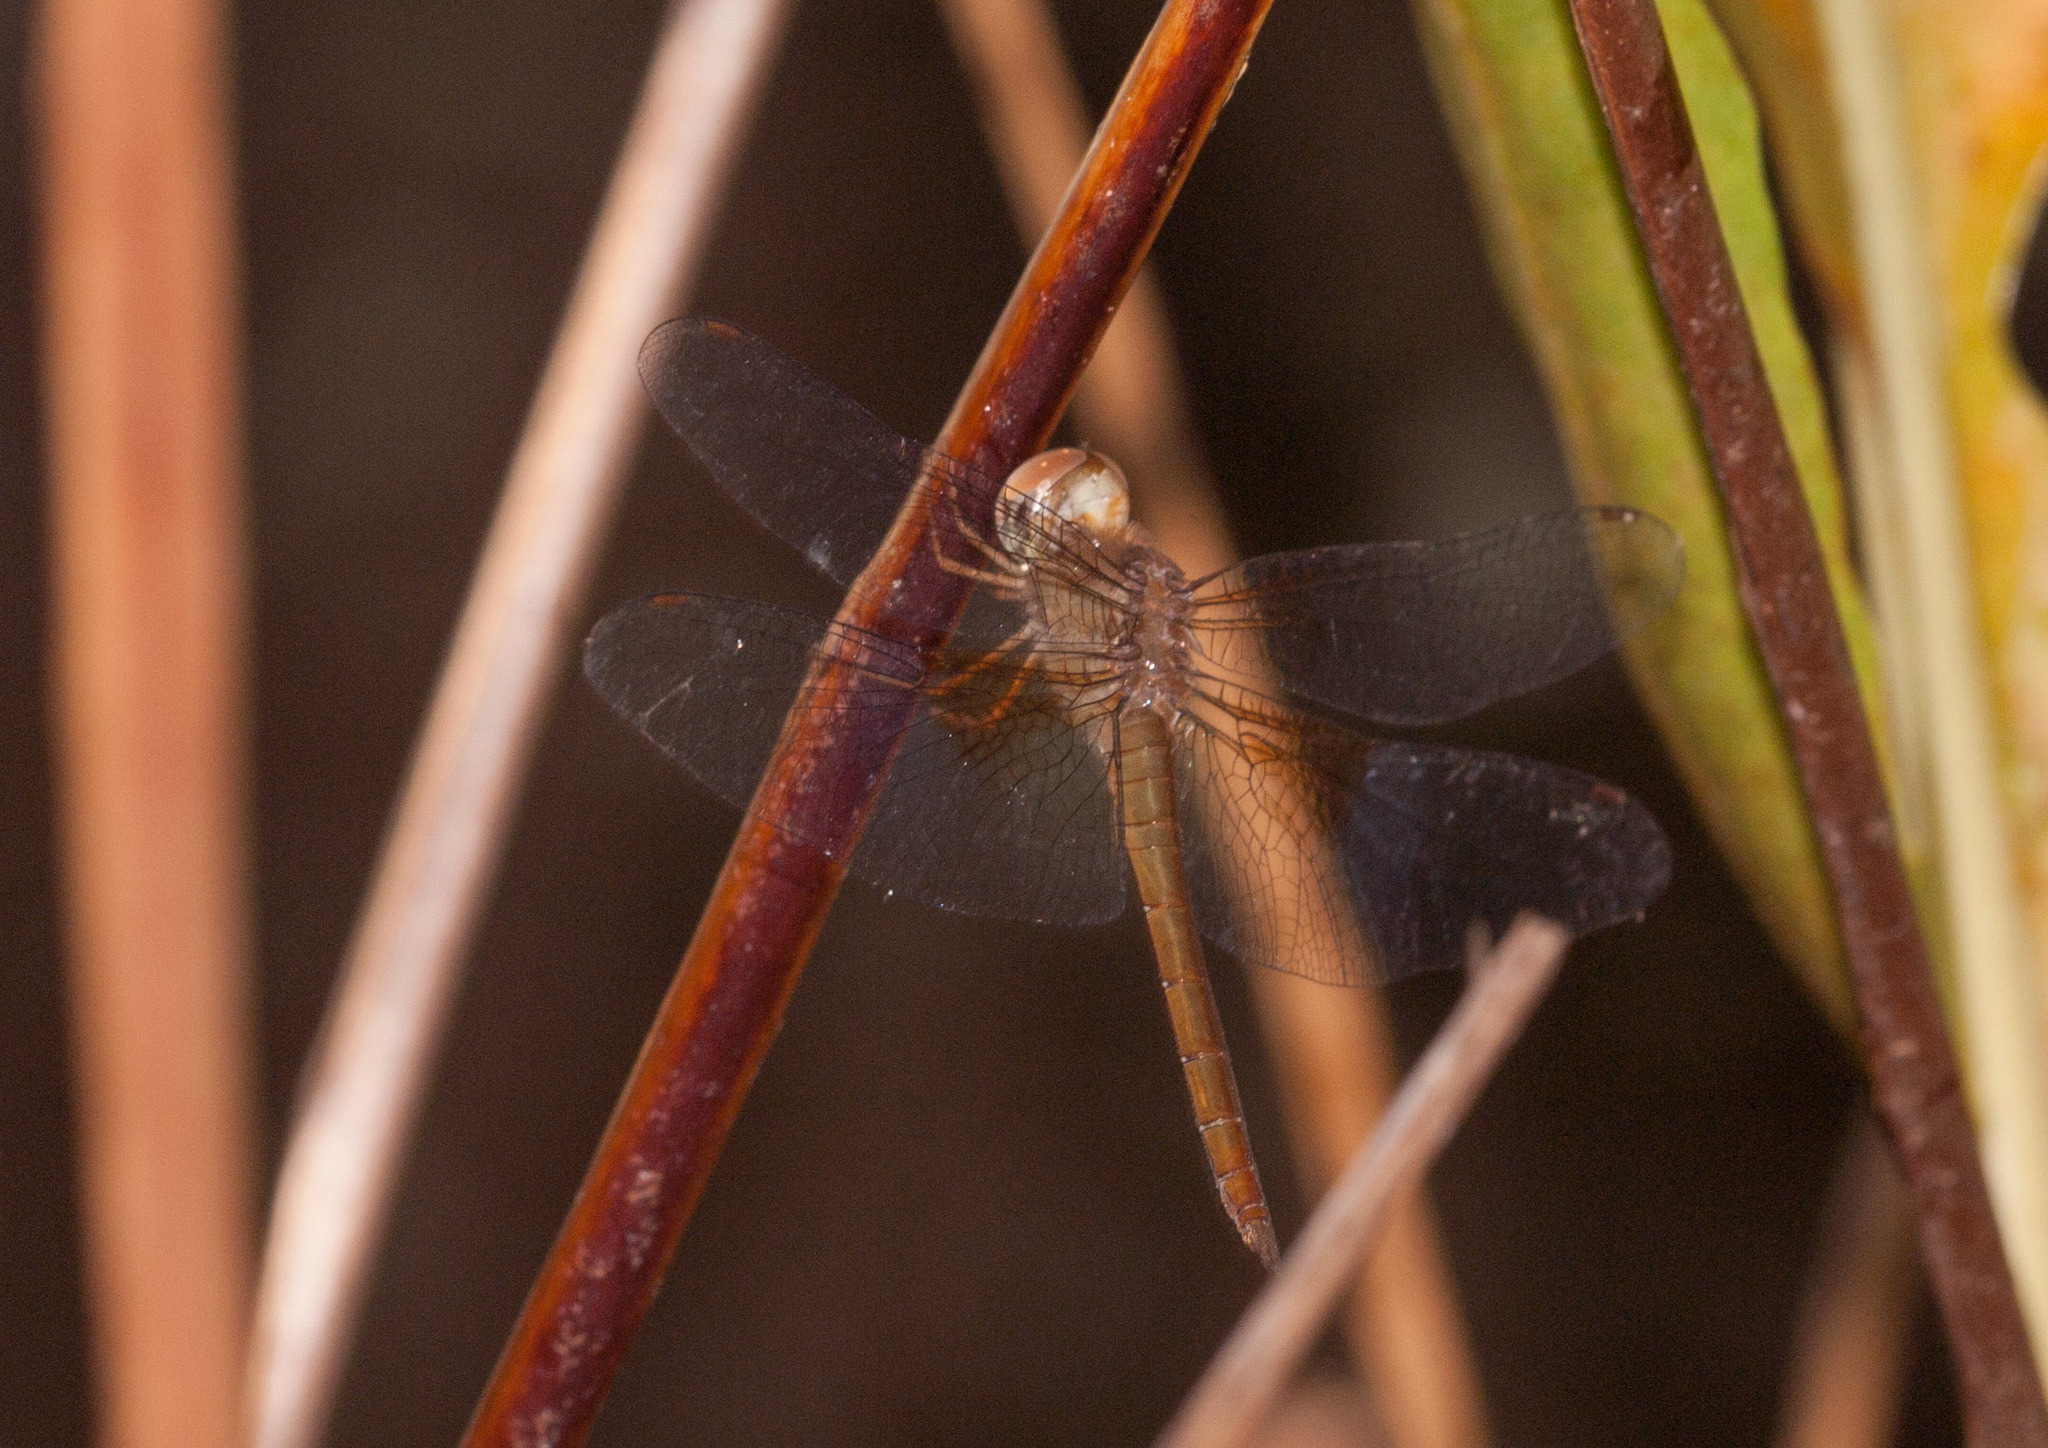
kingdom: Animalia
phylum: Arthropoda
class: Insecta
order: Odonata
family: Libellulidae
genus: Tholymis
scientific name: Tholymis tillarga
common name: Coral-tailed cloud wing
